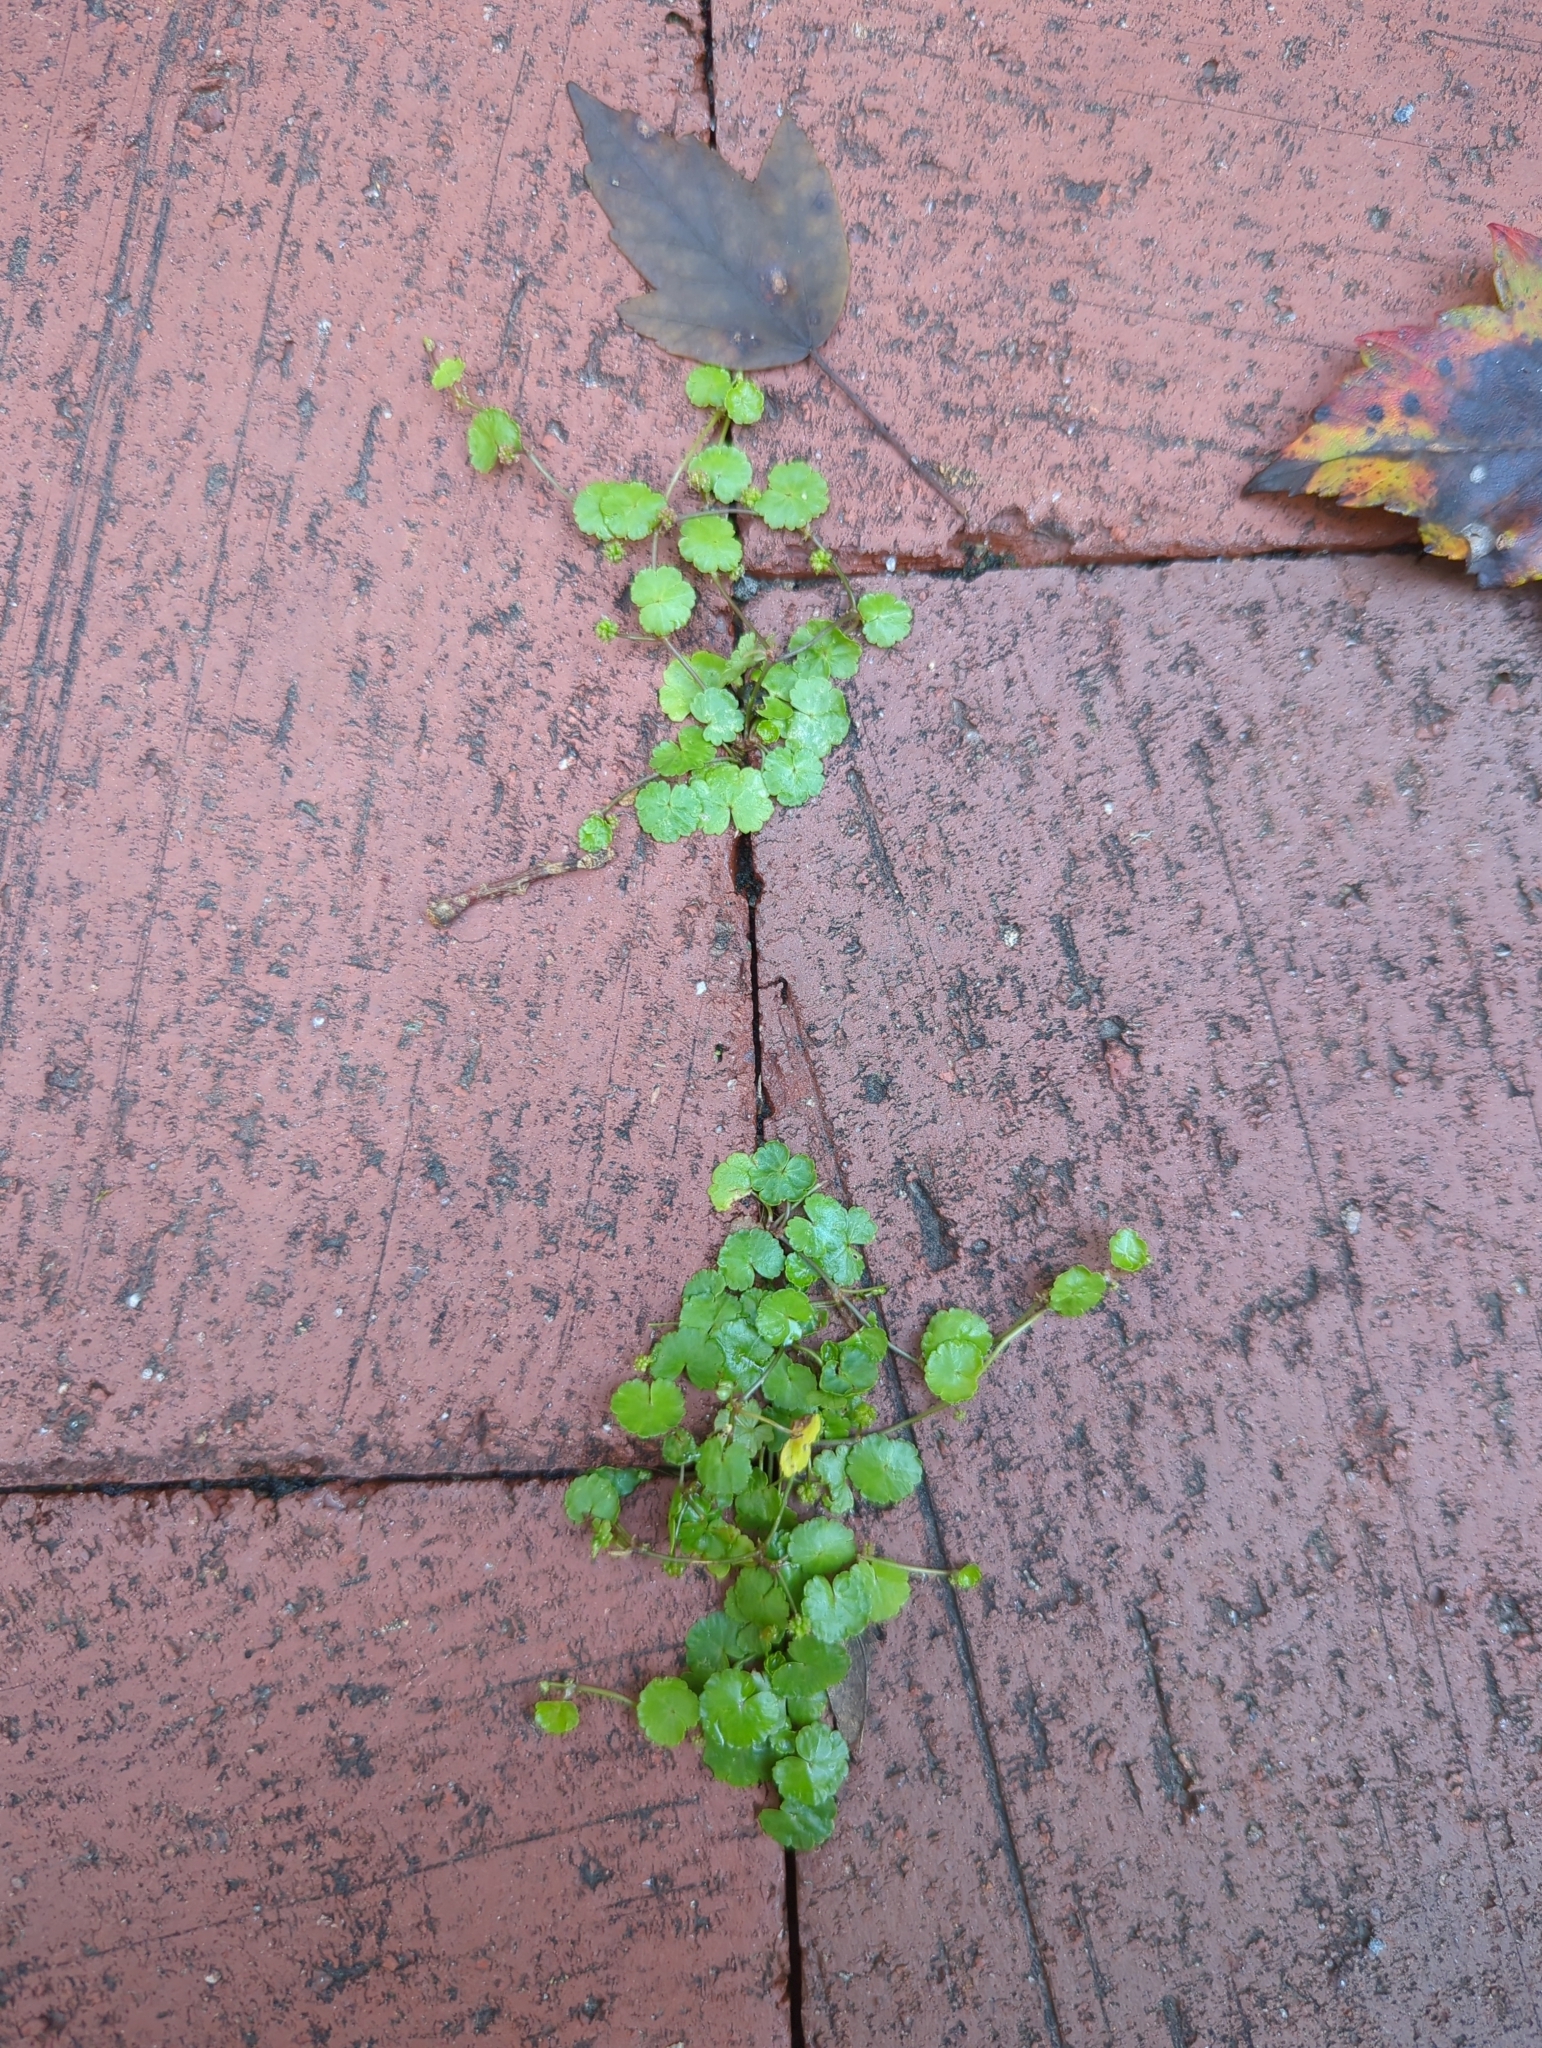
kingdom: Plantae
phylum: Tracheophyta
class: Magnoliopsida
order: Apiales
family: Araliaceae
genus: Hydrocotyle
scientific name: Hydrocotyle sibthorpioides
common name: Lawn marshpennywort
